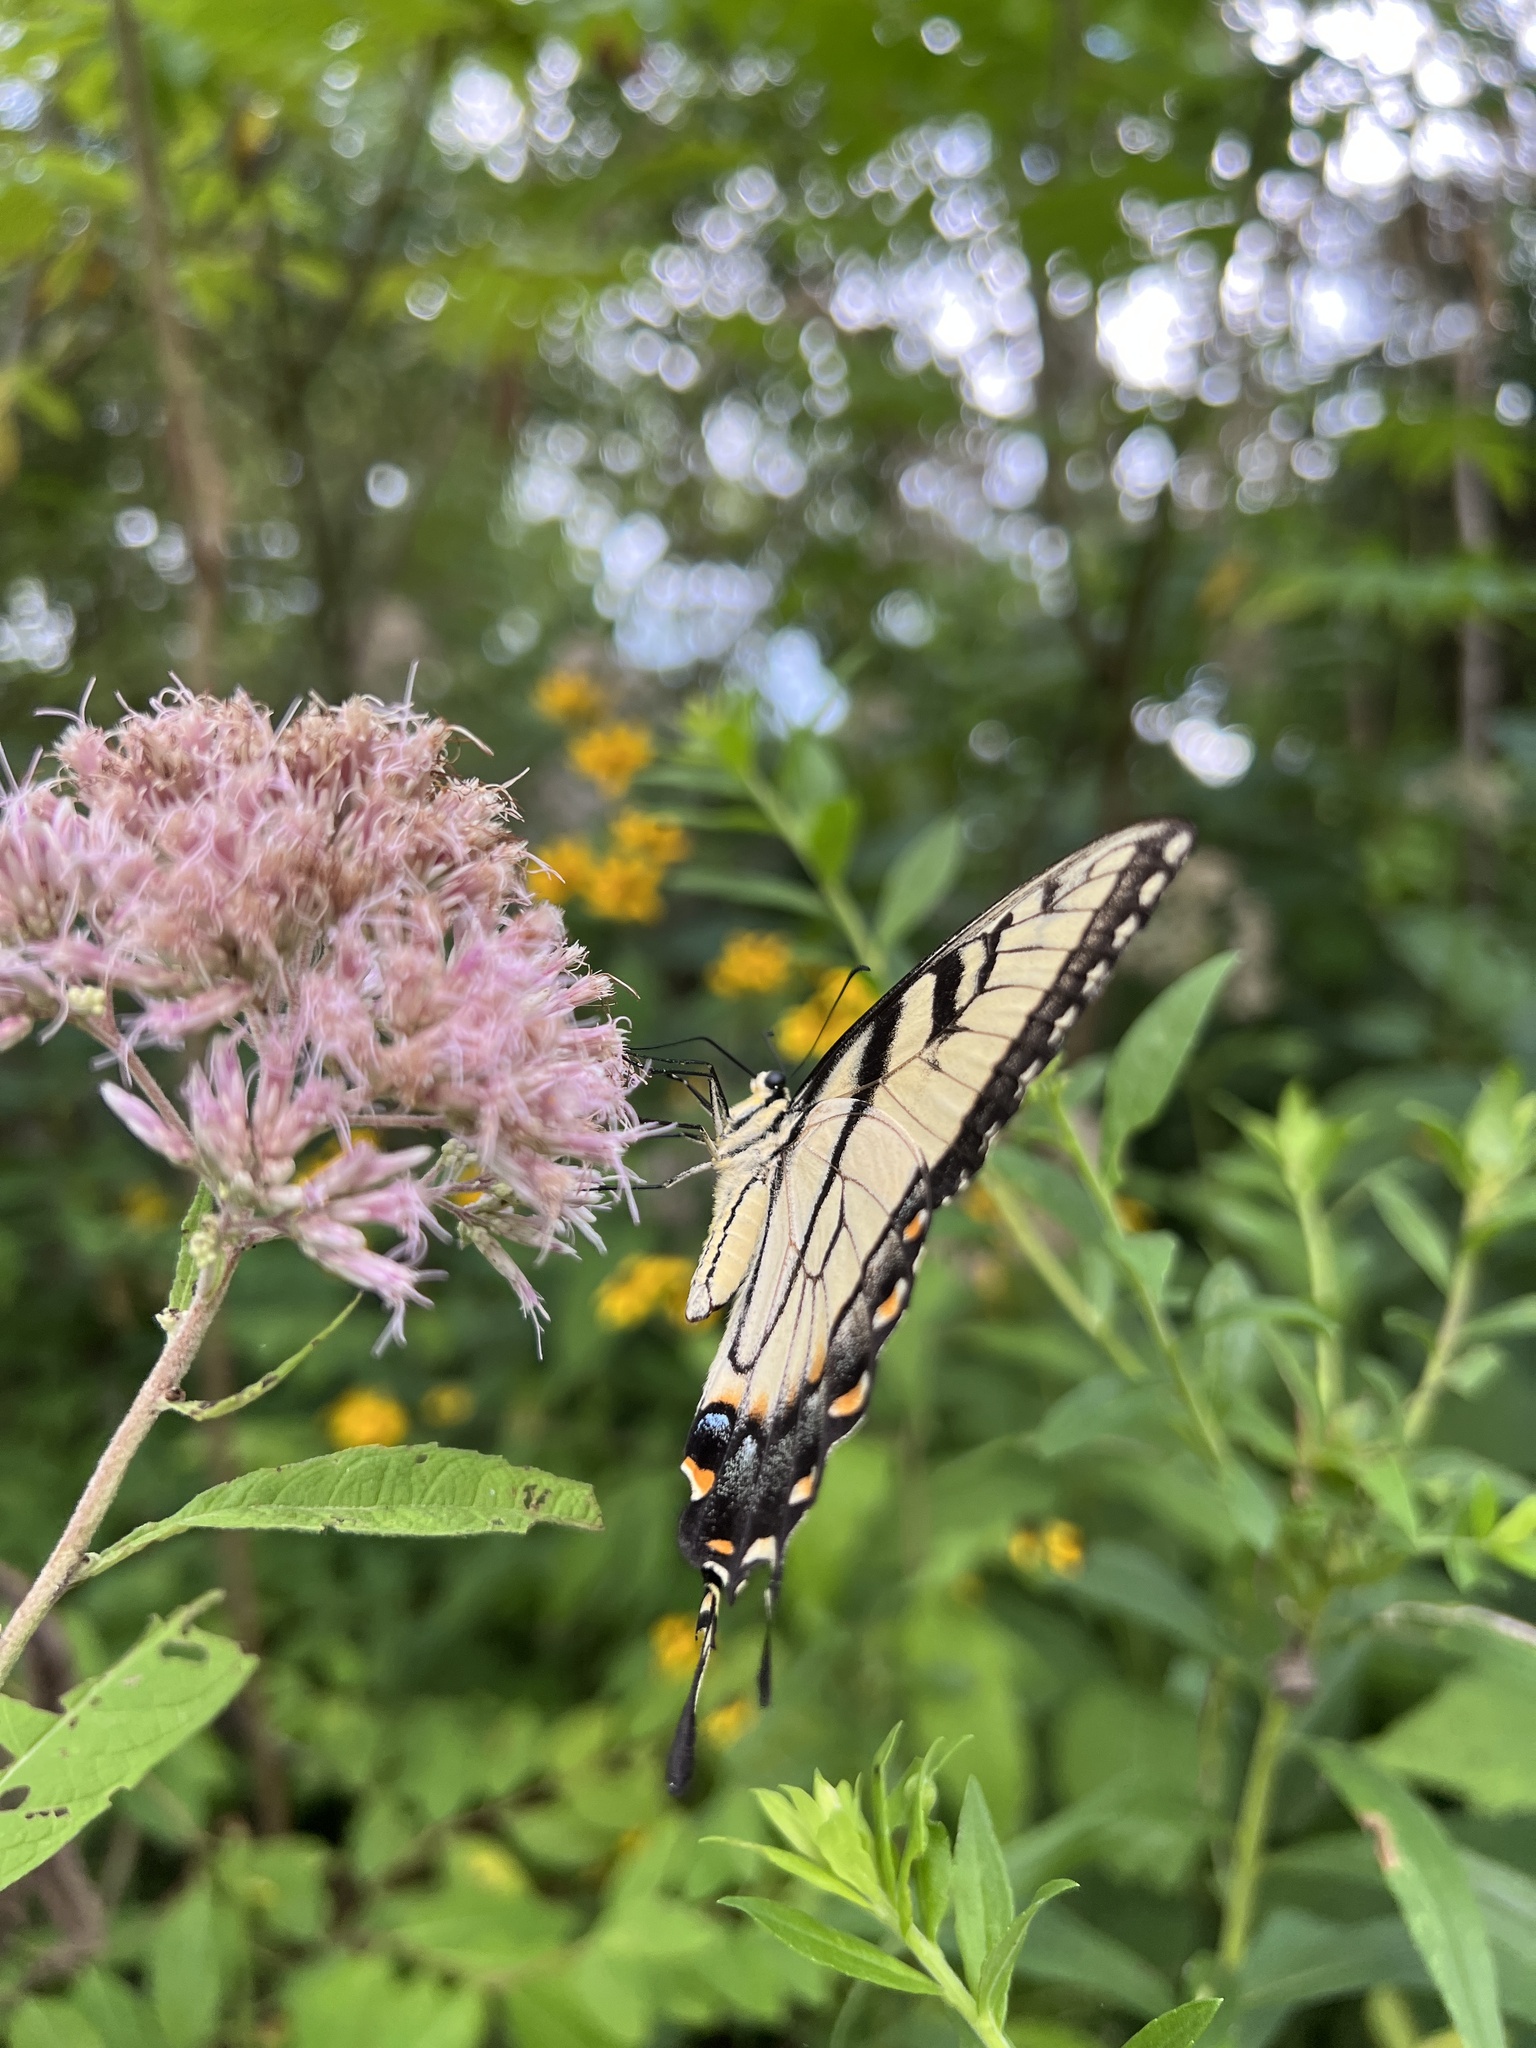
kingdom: Animalia
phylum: Arthropoda
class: Insecta
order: Lepidoptera
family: Papilionidae
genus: Papilio
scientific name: Papilio glaucus
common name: Tiger swallowtail
